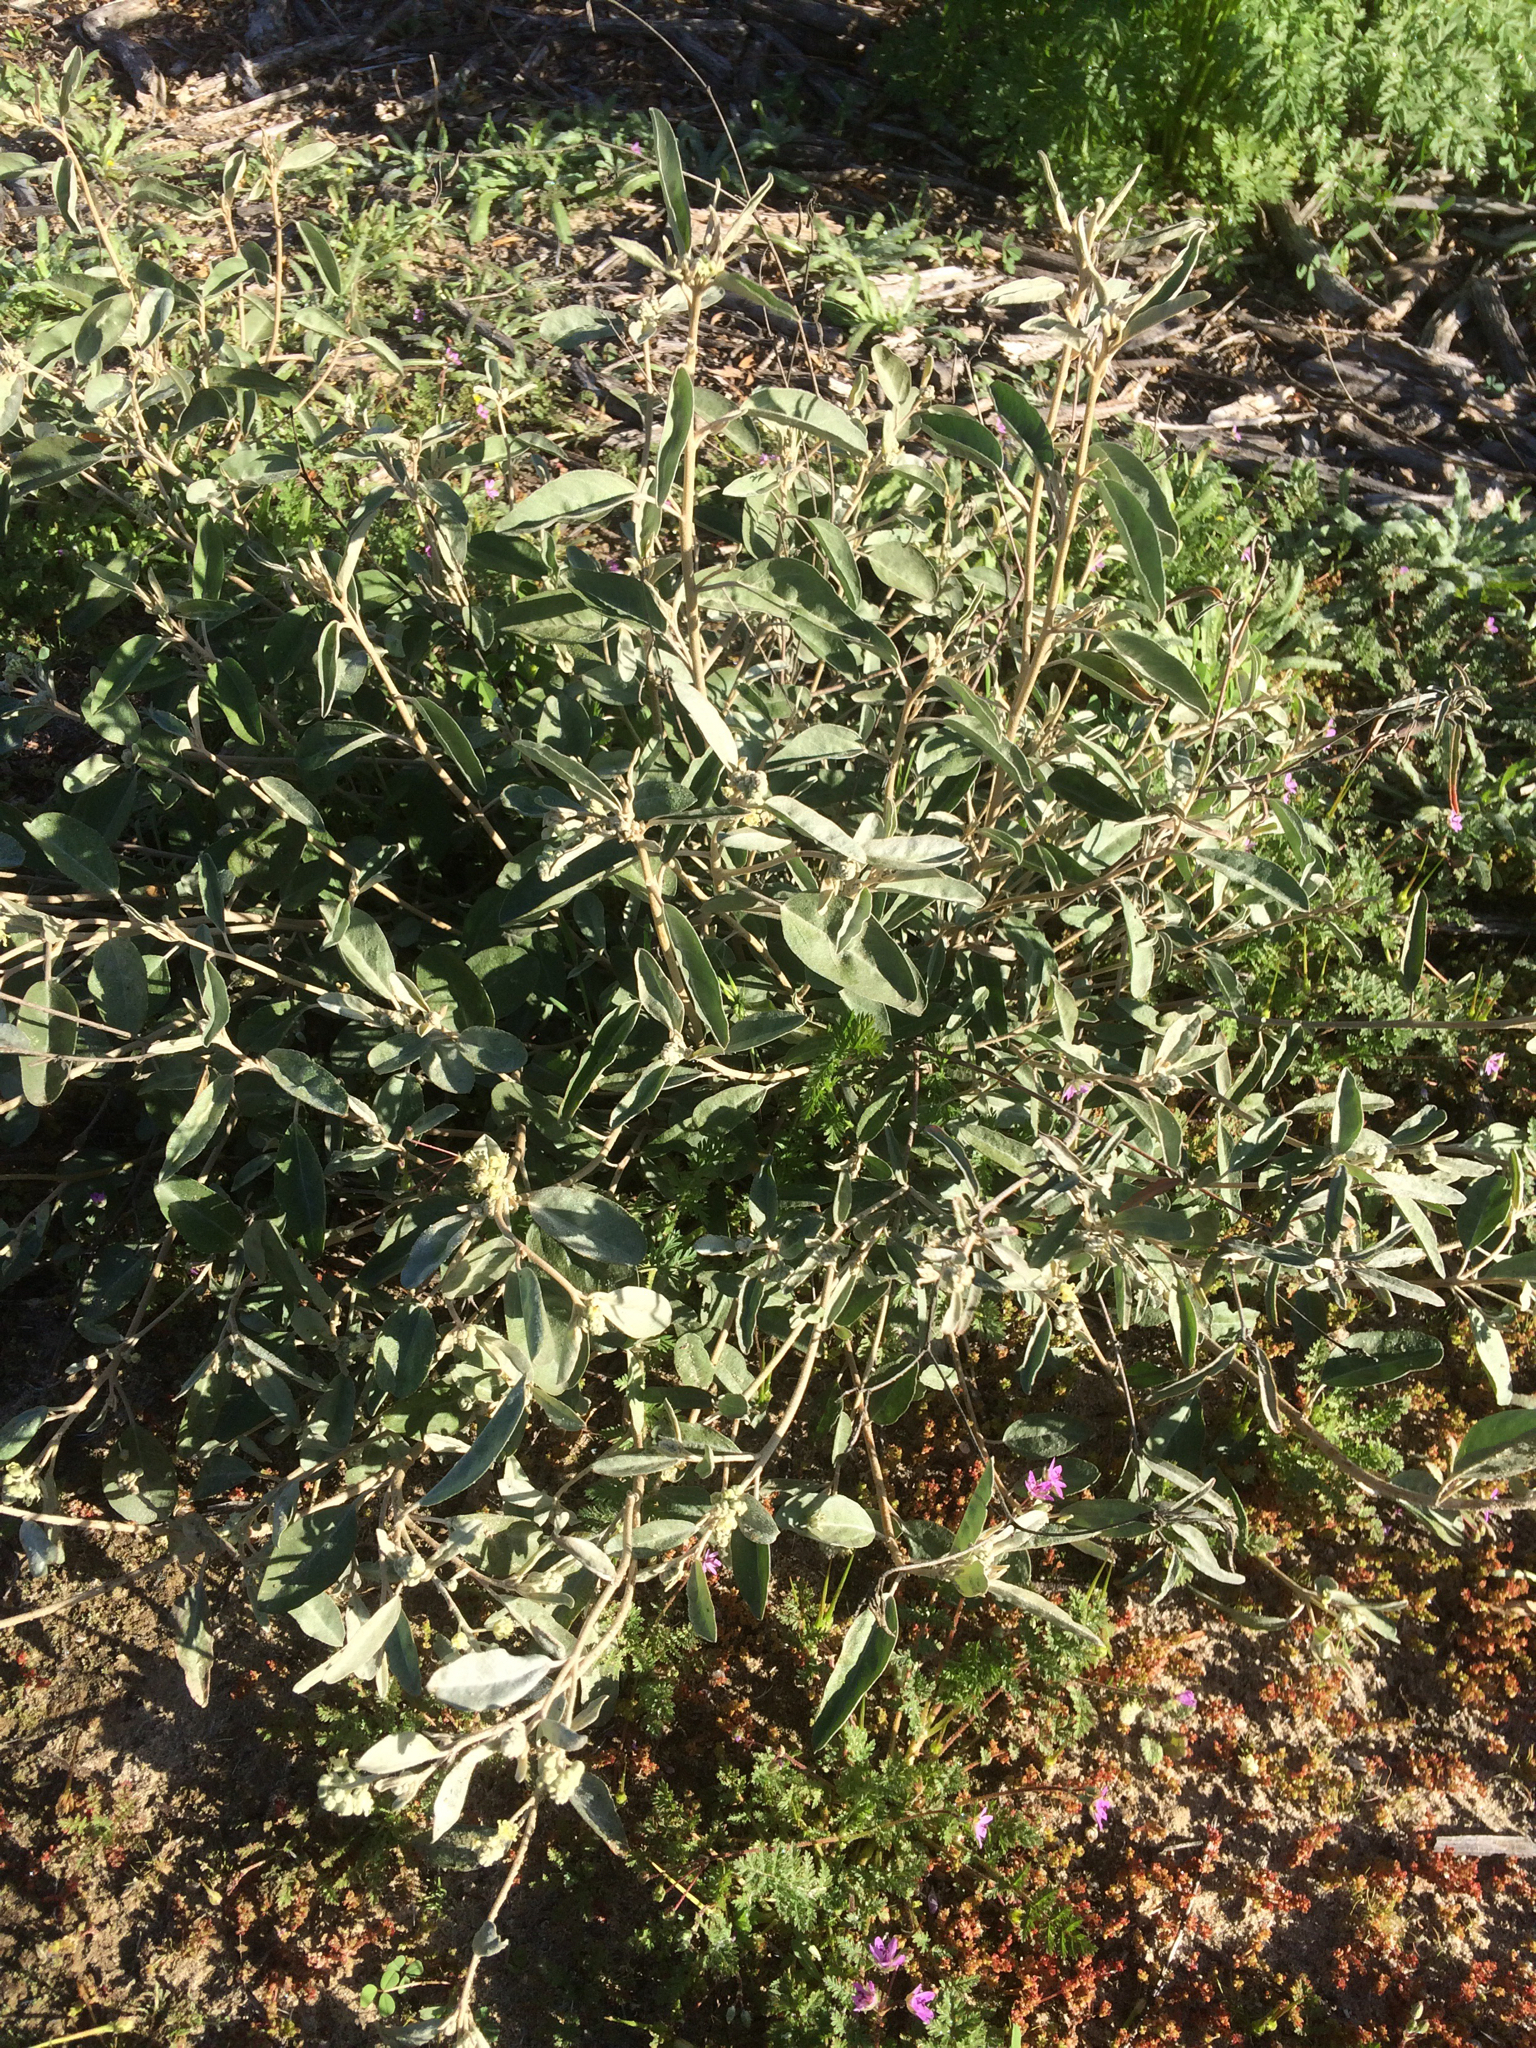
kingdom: Plantae
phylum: Tracheophyta
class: Magnoliopsida
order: Malpighiales
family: Euphorbiaceae
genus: Croton
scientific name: Croton californicus
